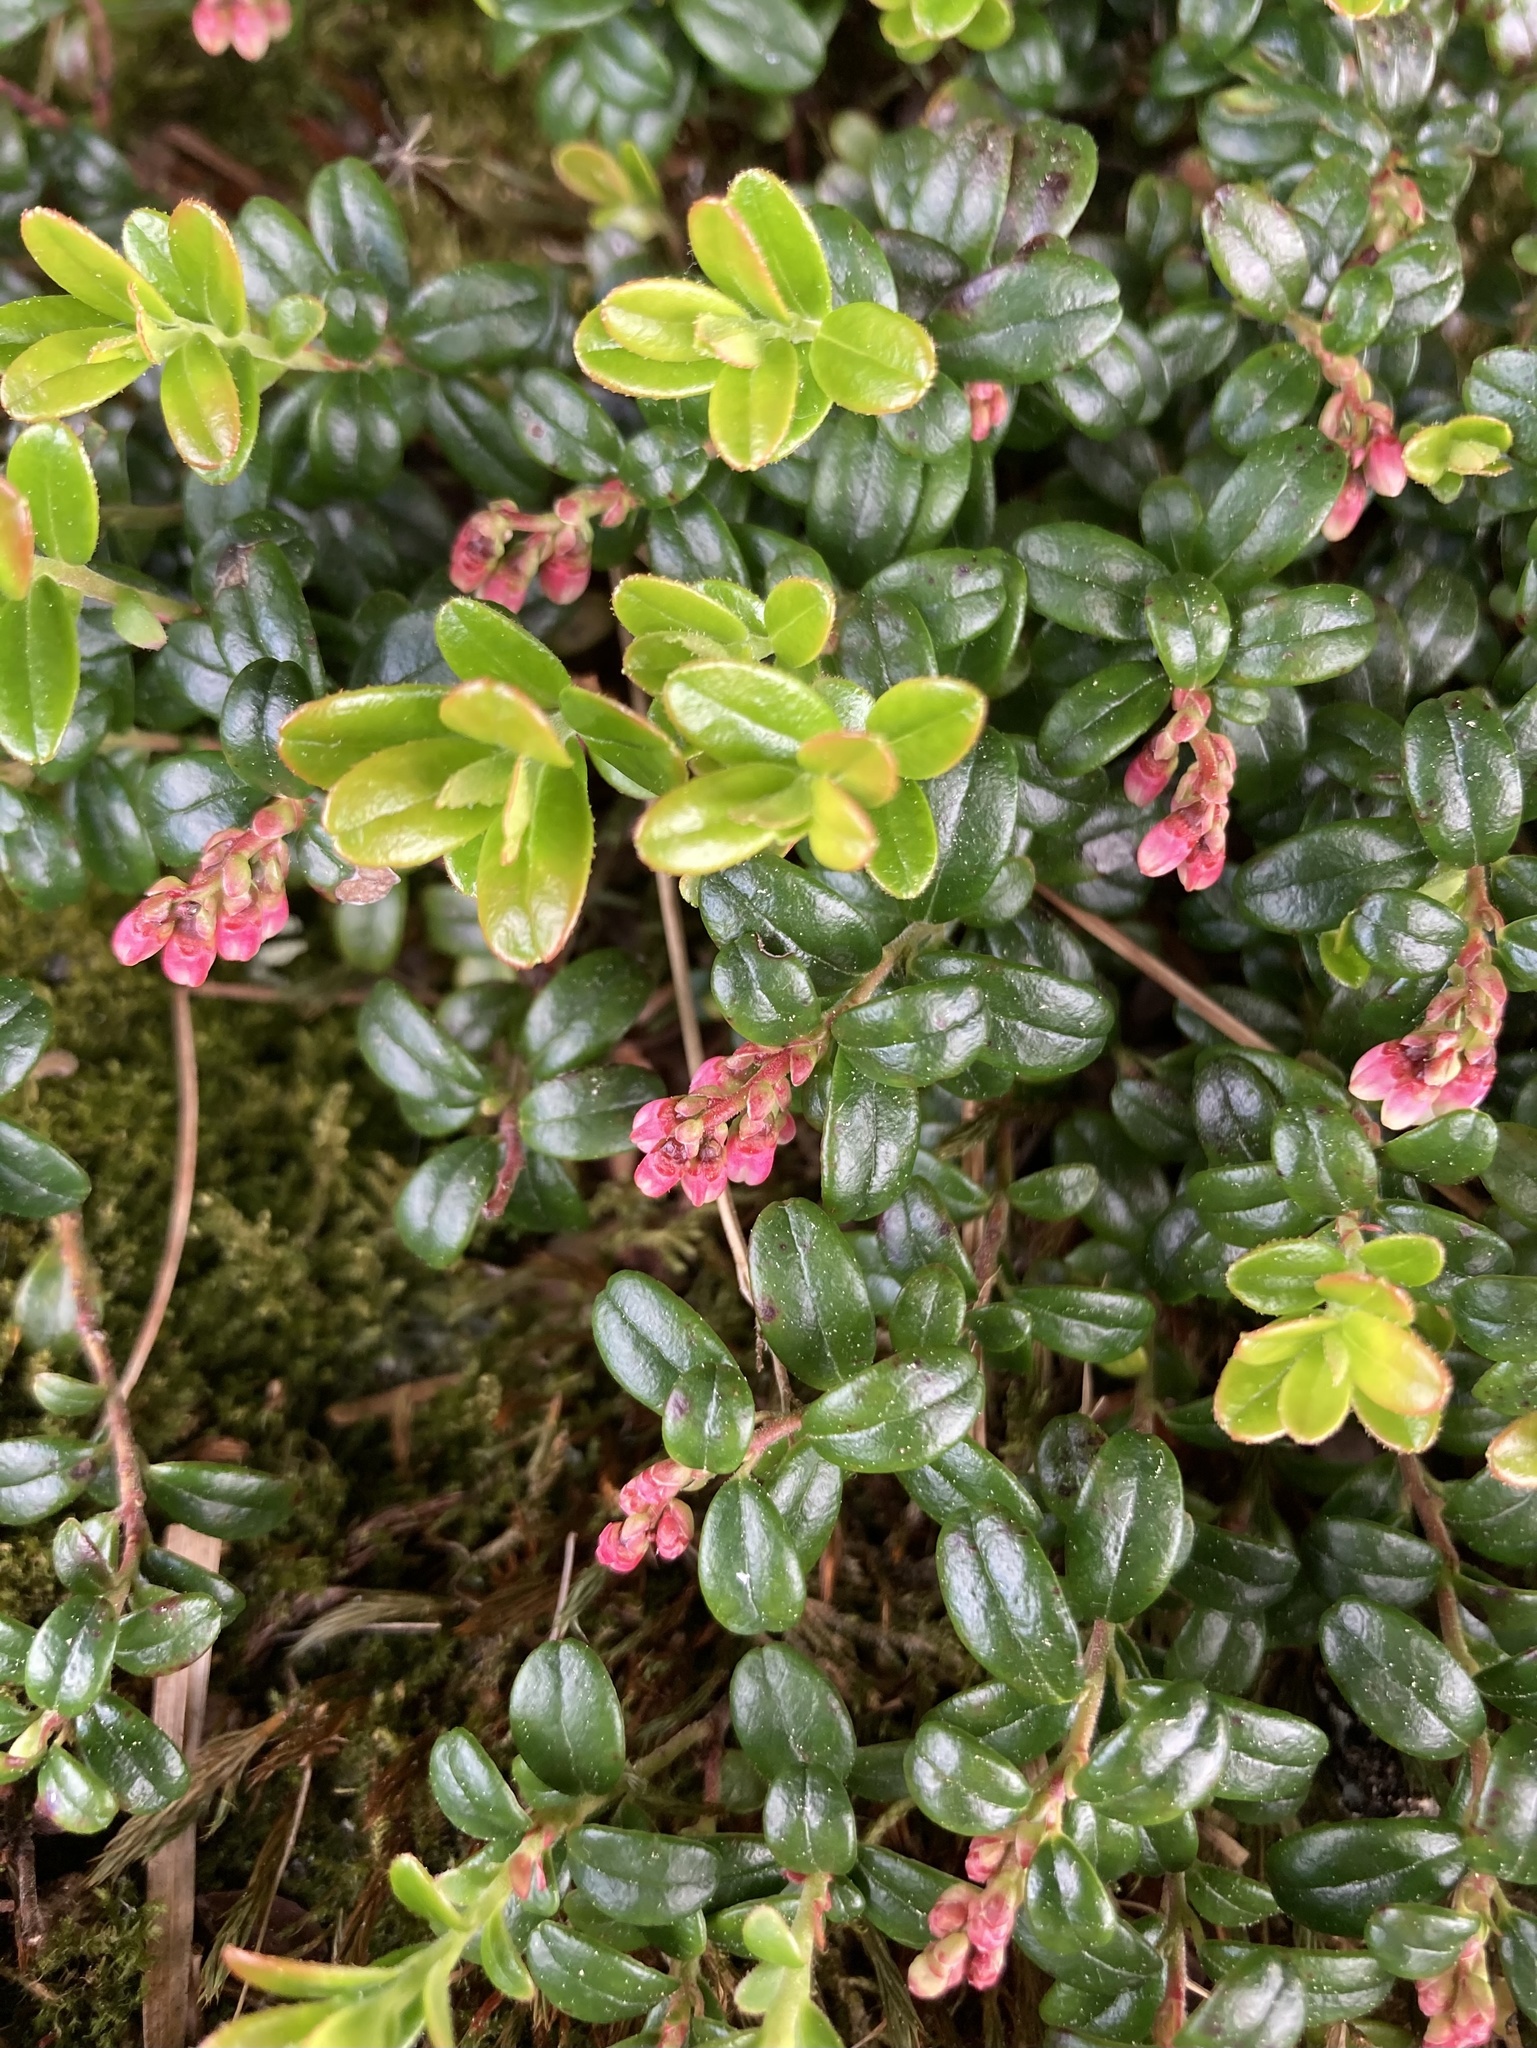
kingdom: Plantae
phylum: Tracheophyta
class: Magnoliopsida
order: Ericales
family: Ericaceae
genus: Vaccinium
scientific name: Vaccinium vitis-idaea
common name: Cowberry
